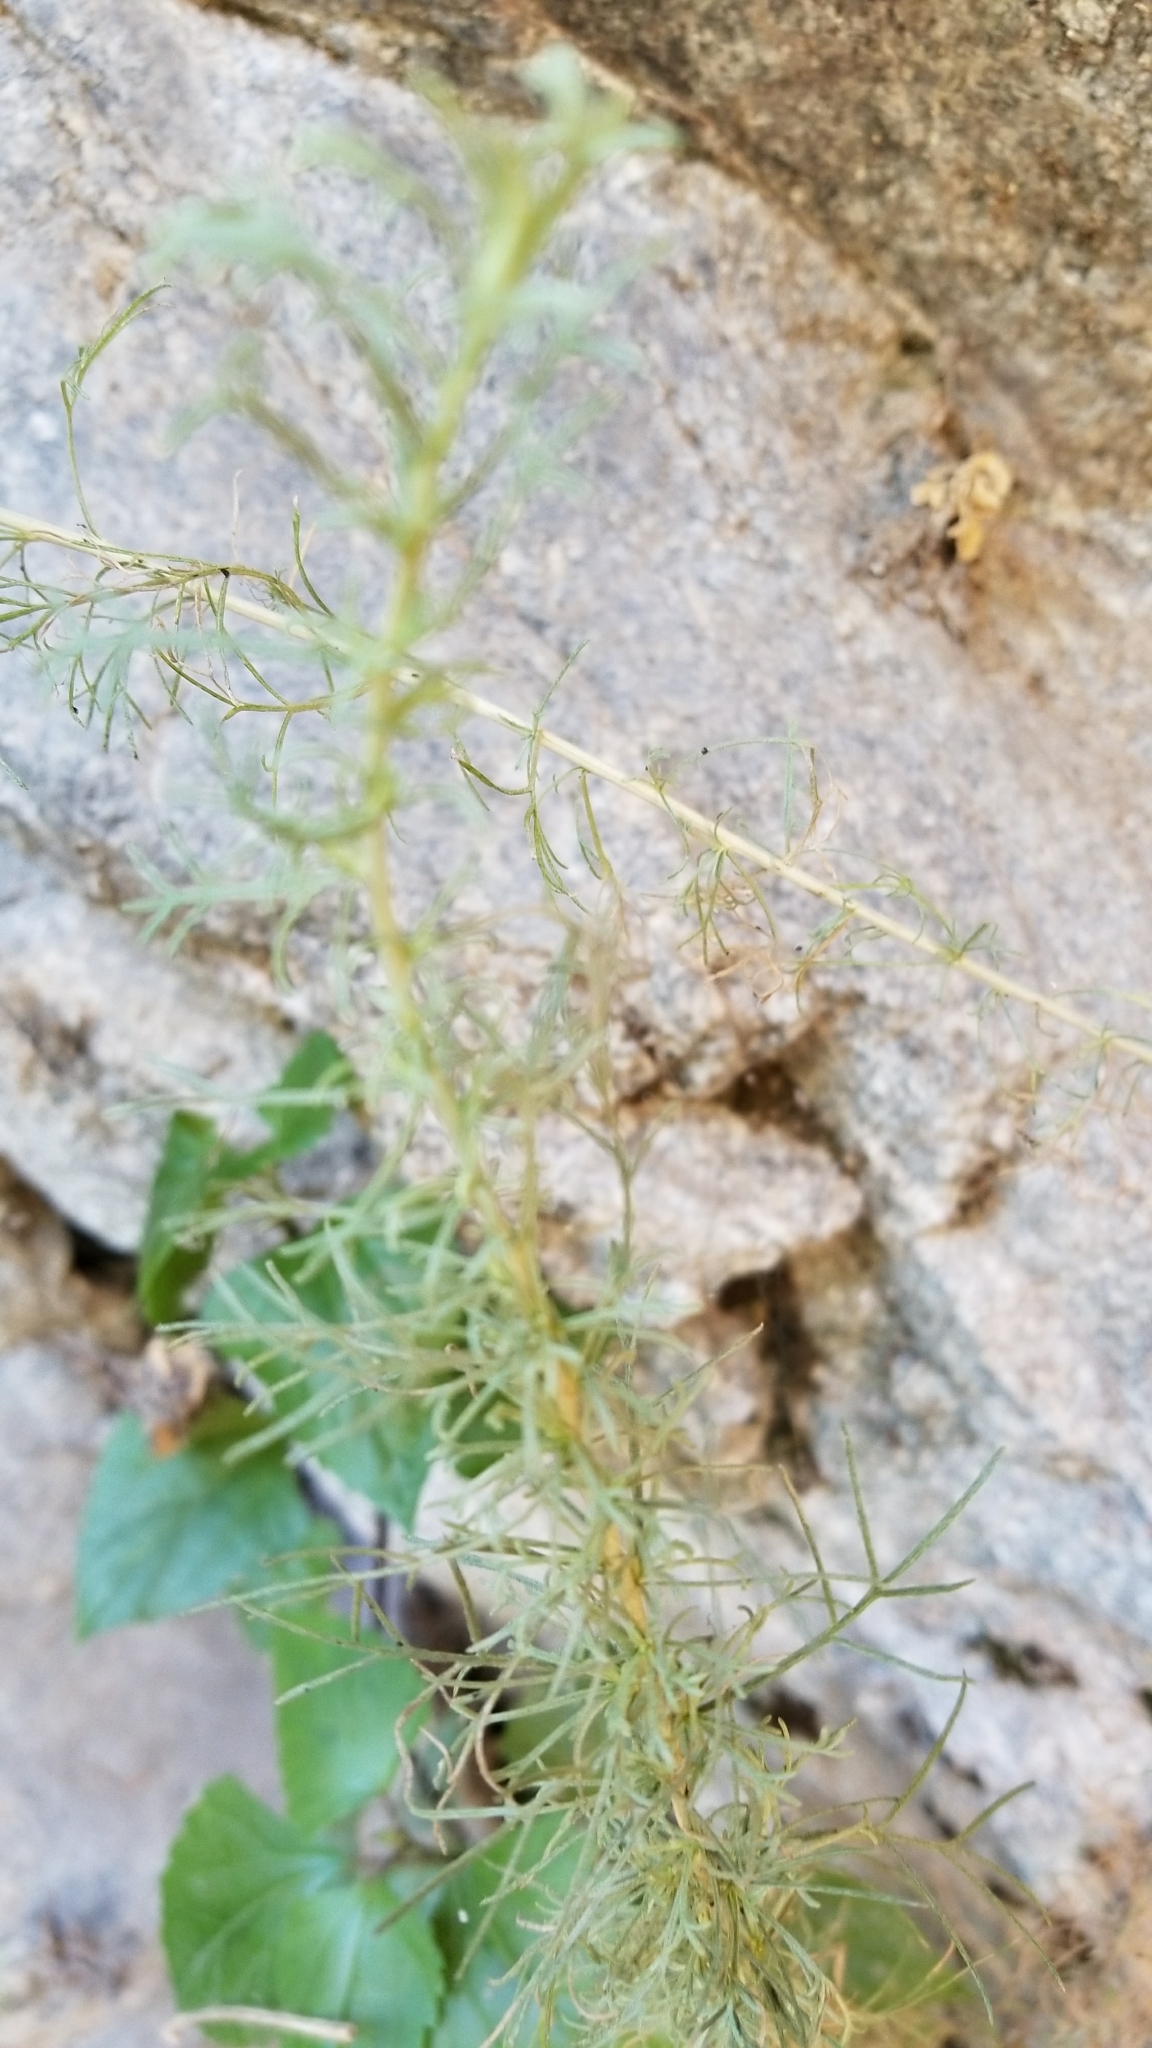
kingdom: Plantae
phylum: Tracheophyta
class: Magnoliopsida
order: Asterales
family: Asteraceae
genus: Artemisia
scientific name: Artemisia californica
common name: California sagebrush
